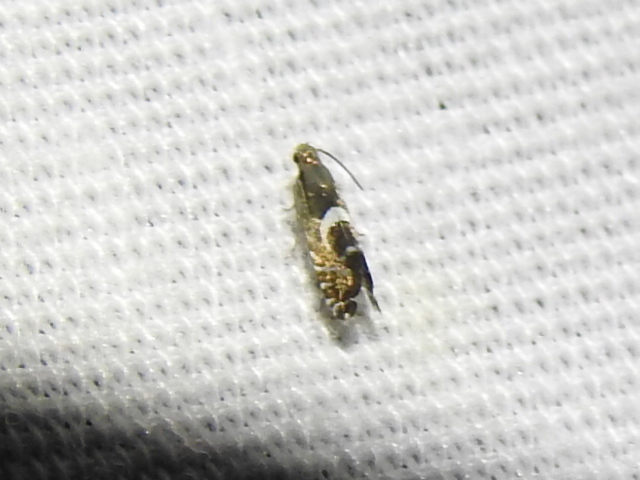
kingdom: Animalia
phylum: Arthropoda
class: Insecta
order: Lepidoptera
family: Glyphipterigidae
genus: Glyphipterix
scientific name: Glyphipterix Diploschizia impigritella
